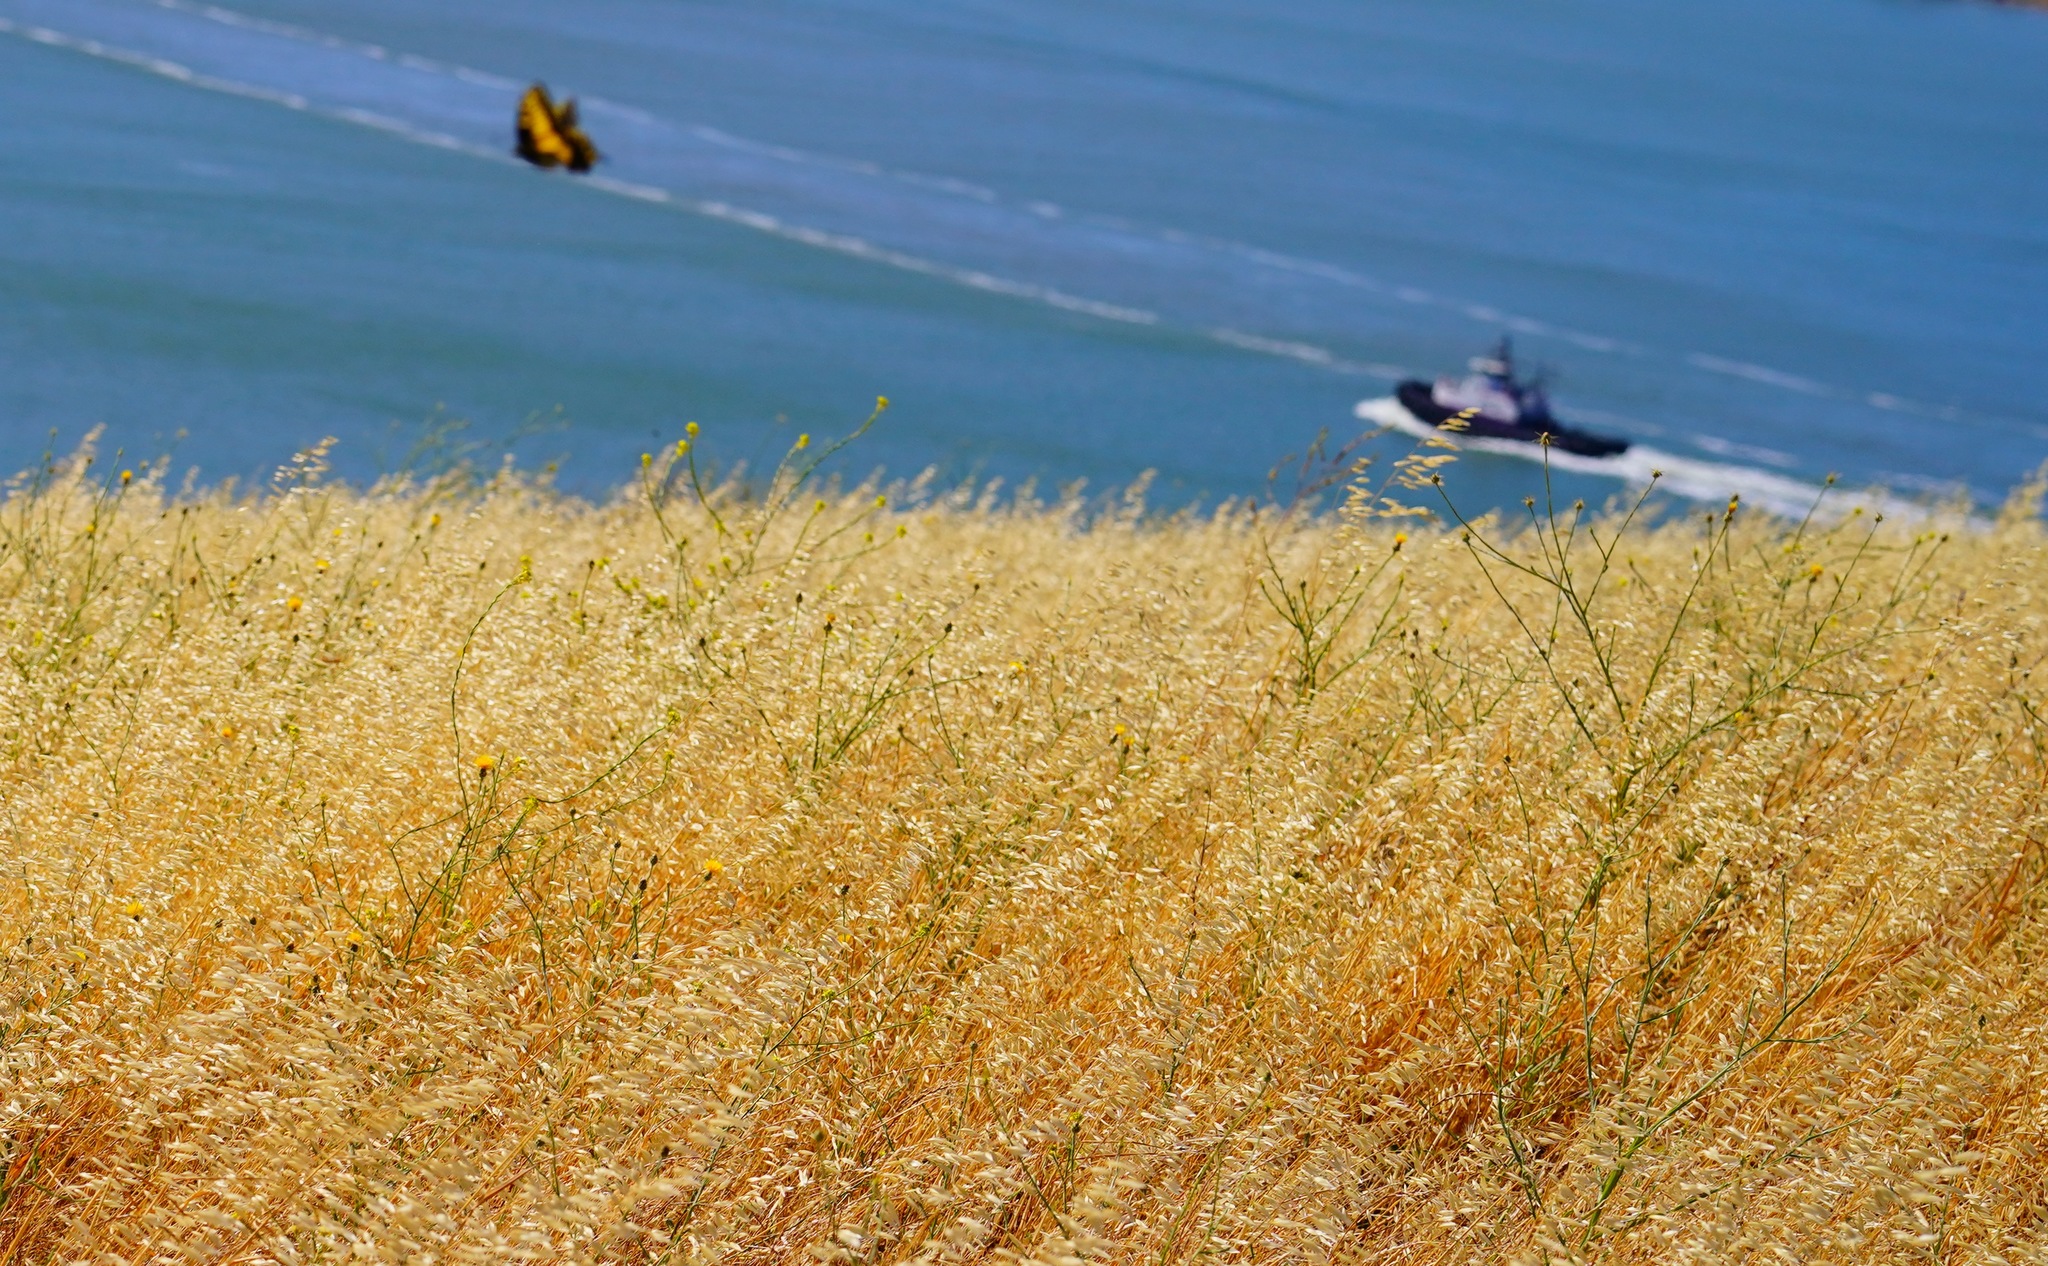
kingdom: Animalia
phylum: Arthropoda
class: Insecta
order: Lepidoptera
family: Papilionidae
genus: Papilio
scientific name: Papilio zelicaon
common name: Anise swallowtail
